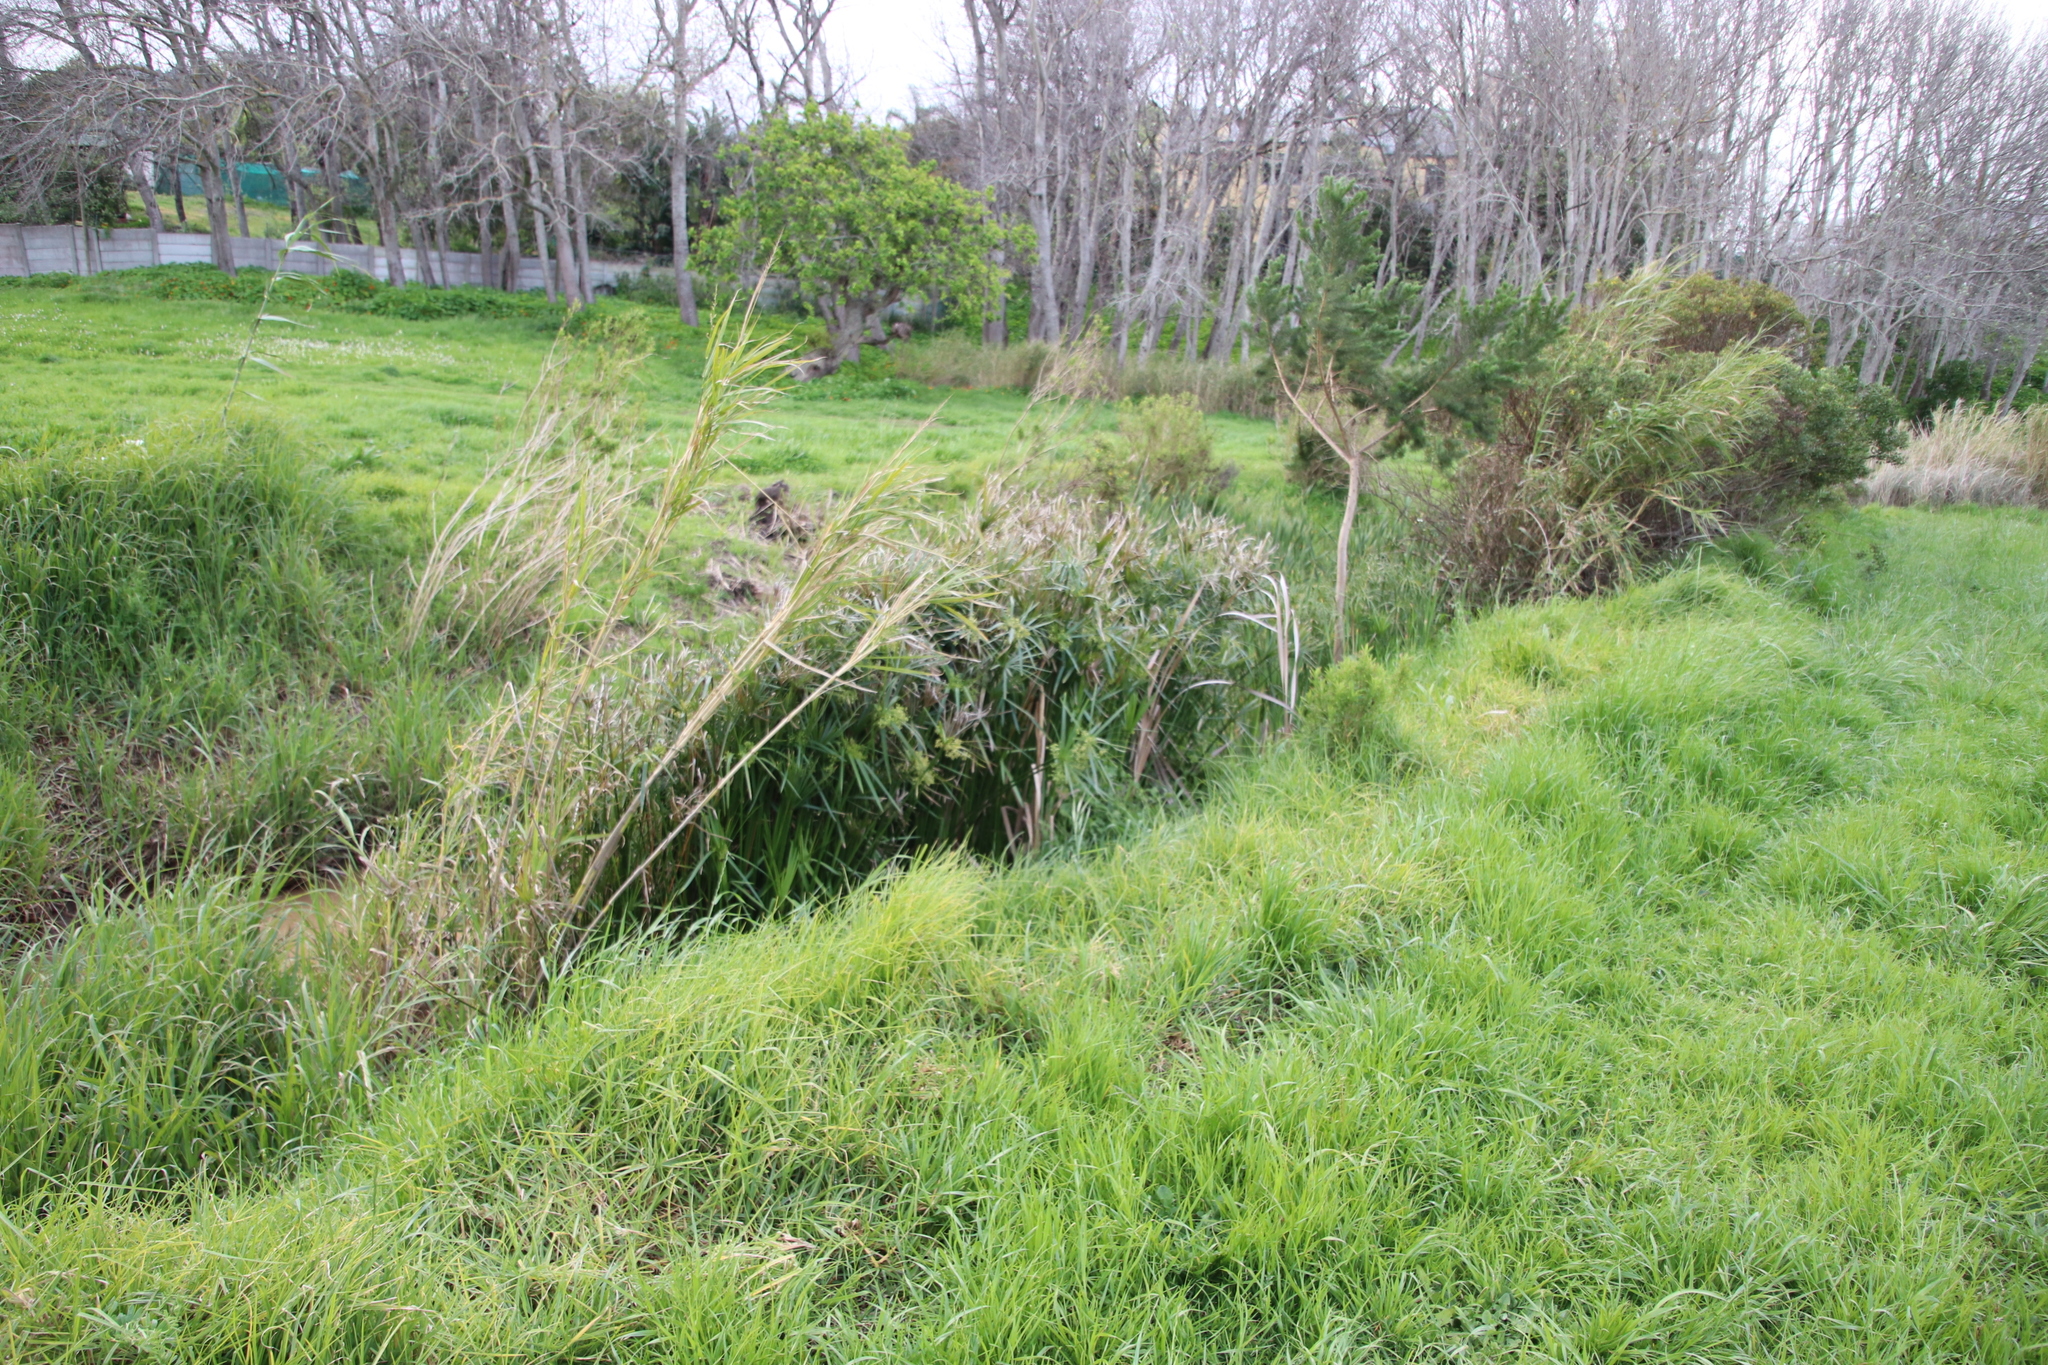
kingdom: Plantae
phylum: Tracheophyta
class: Liliopsida
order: Poales
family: Cyperaceae
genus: Cyperus
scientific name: Cyperus thunbergii
